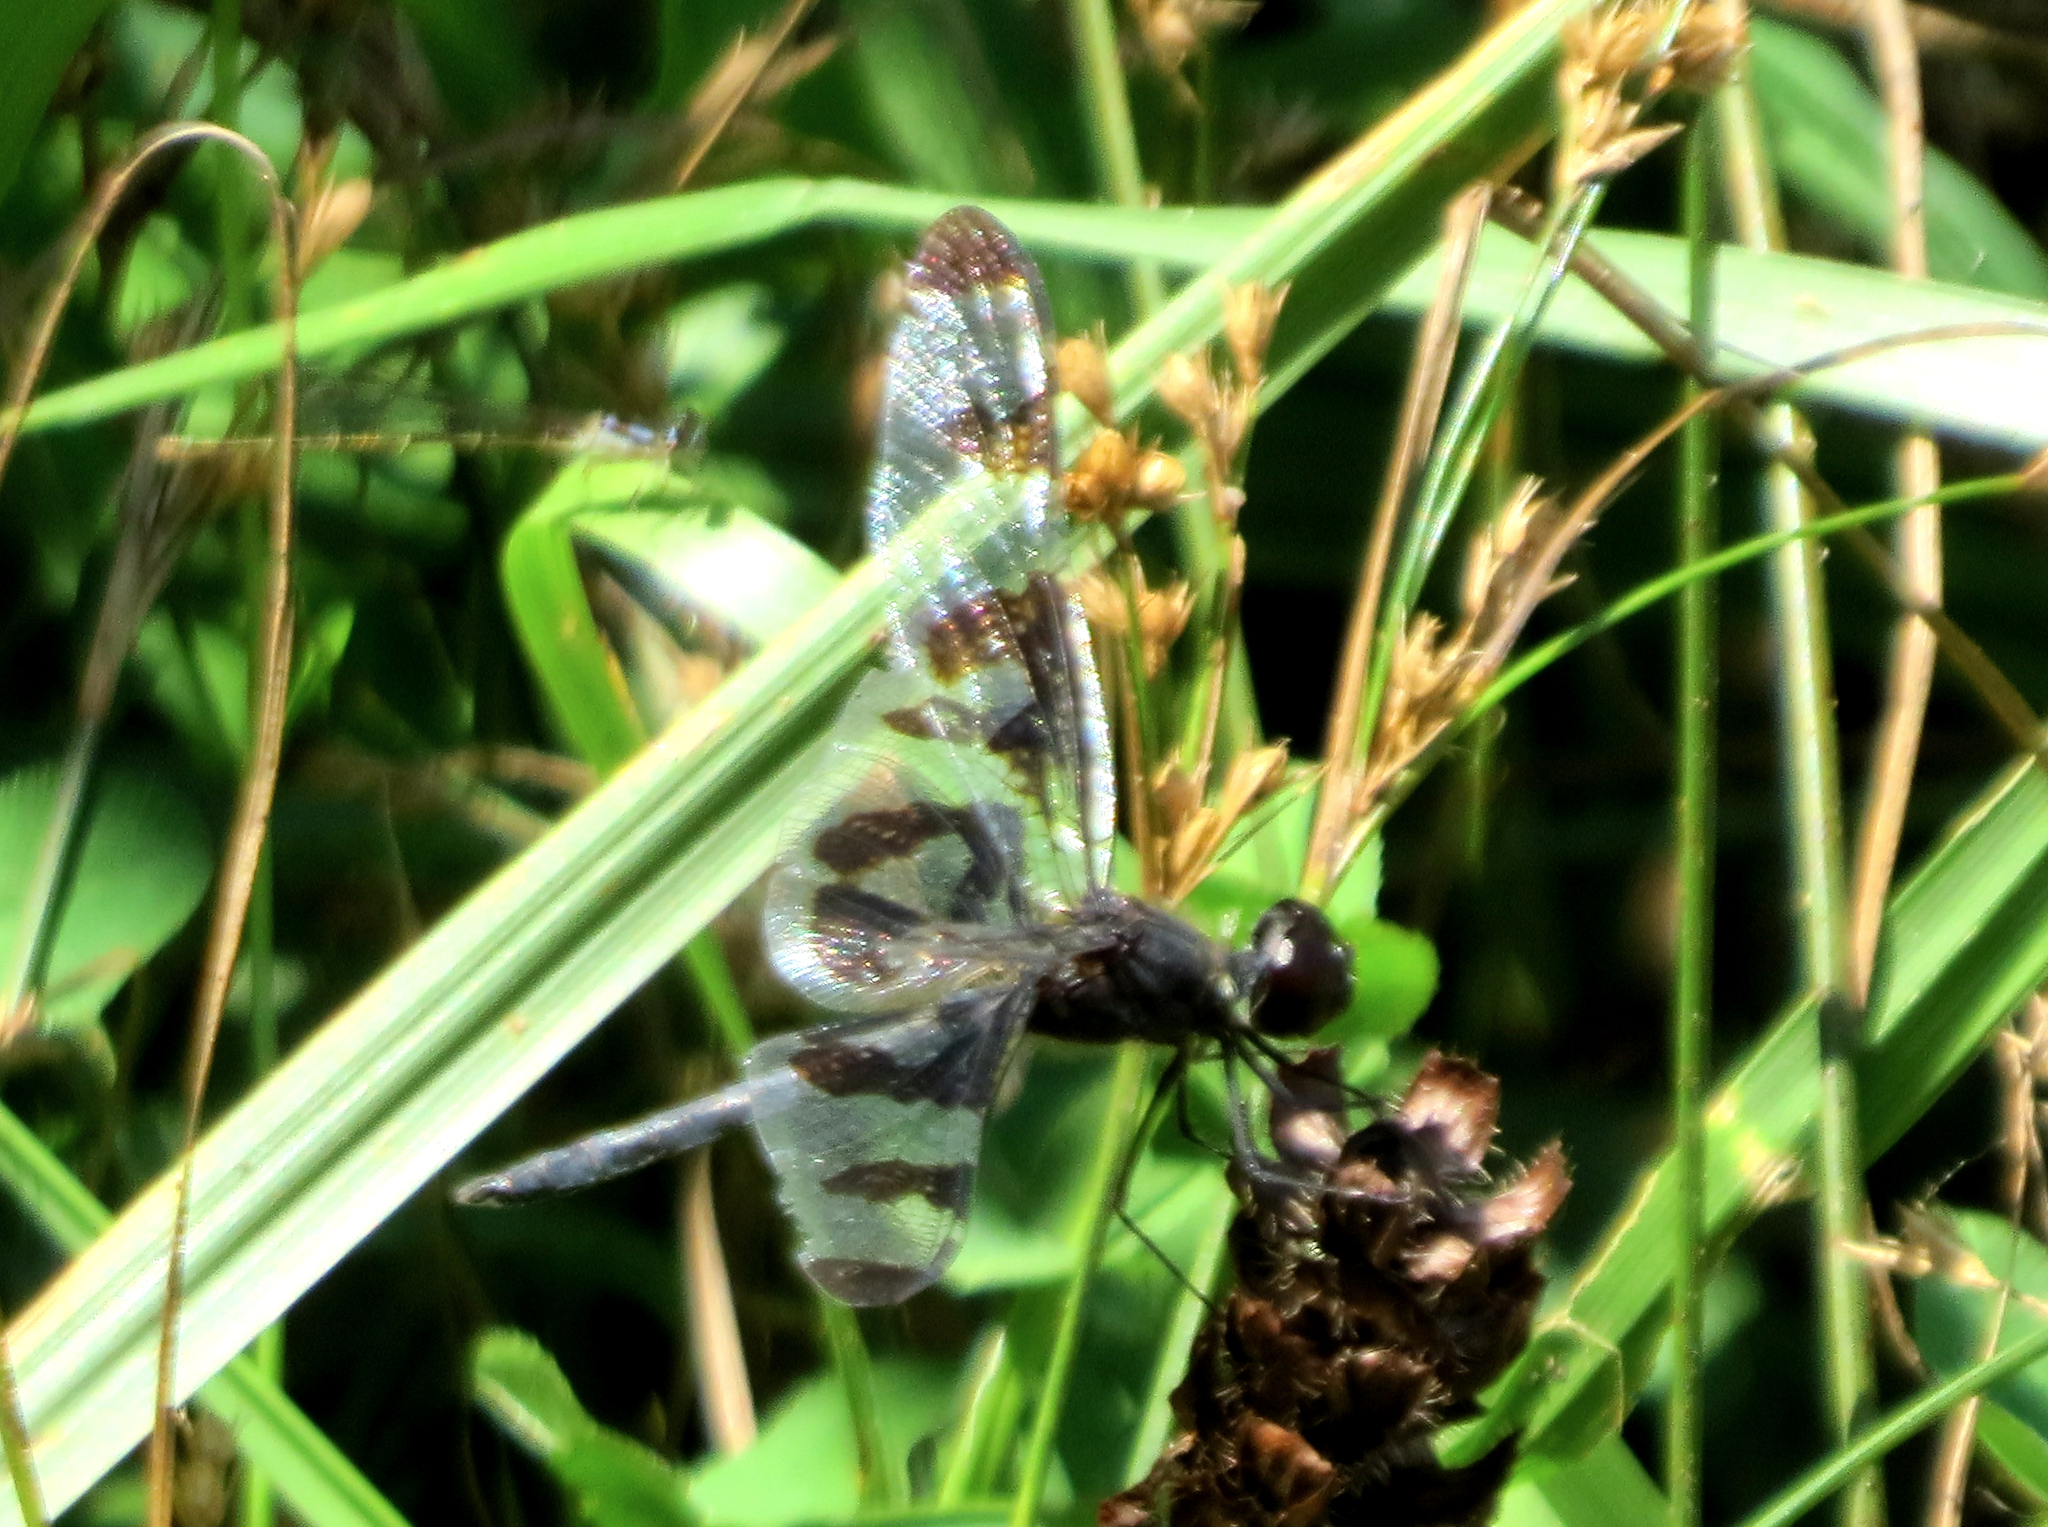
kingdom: Animalia
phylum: Arthropoda
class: Insecta
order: Odonata
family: Libellulidae
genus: Celithemis
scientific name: Celithemis fasciata
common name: Banded pennant
